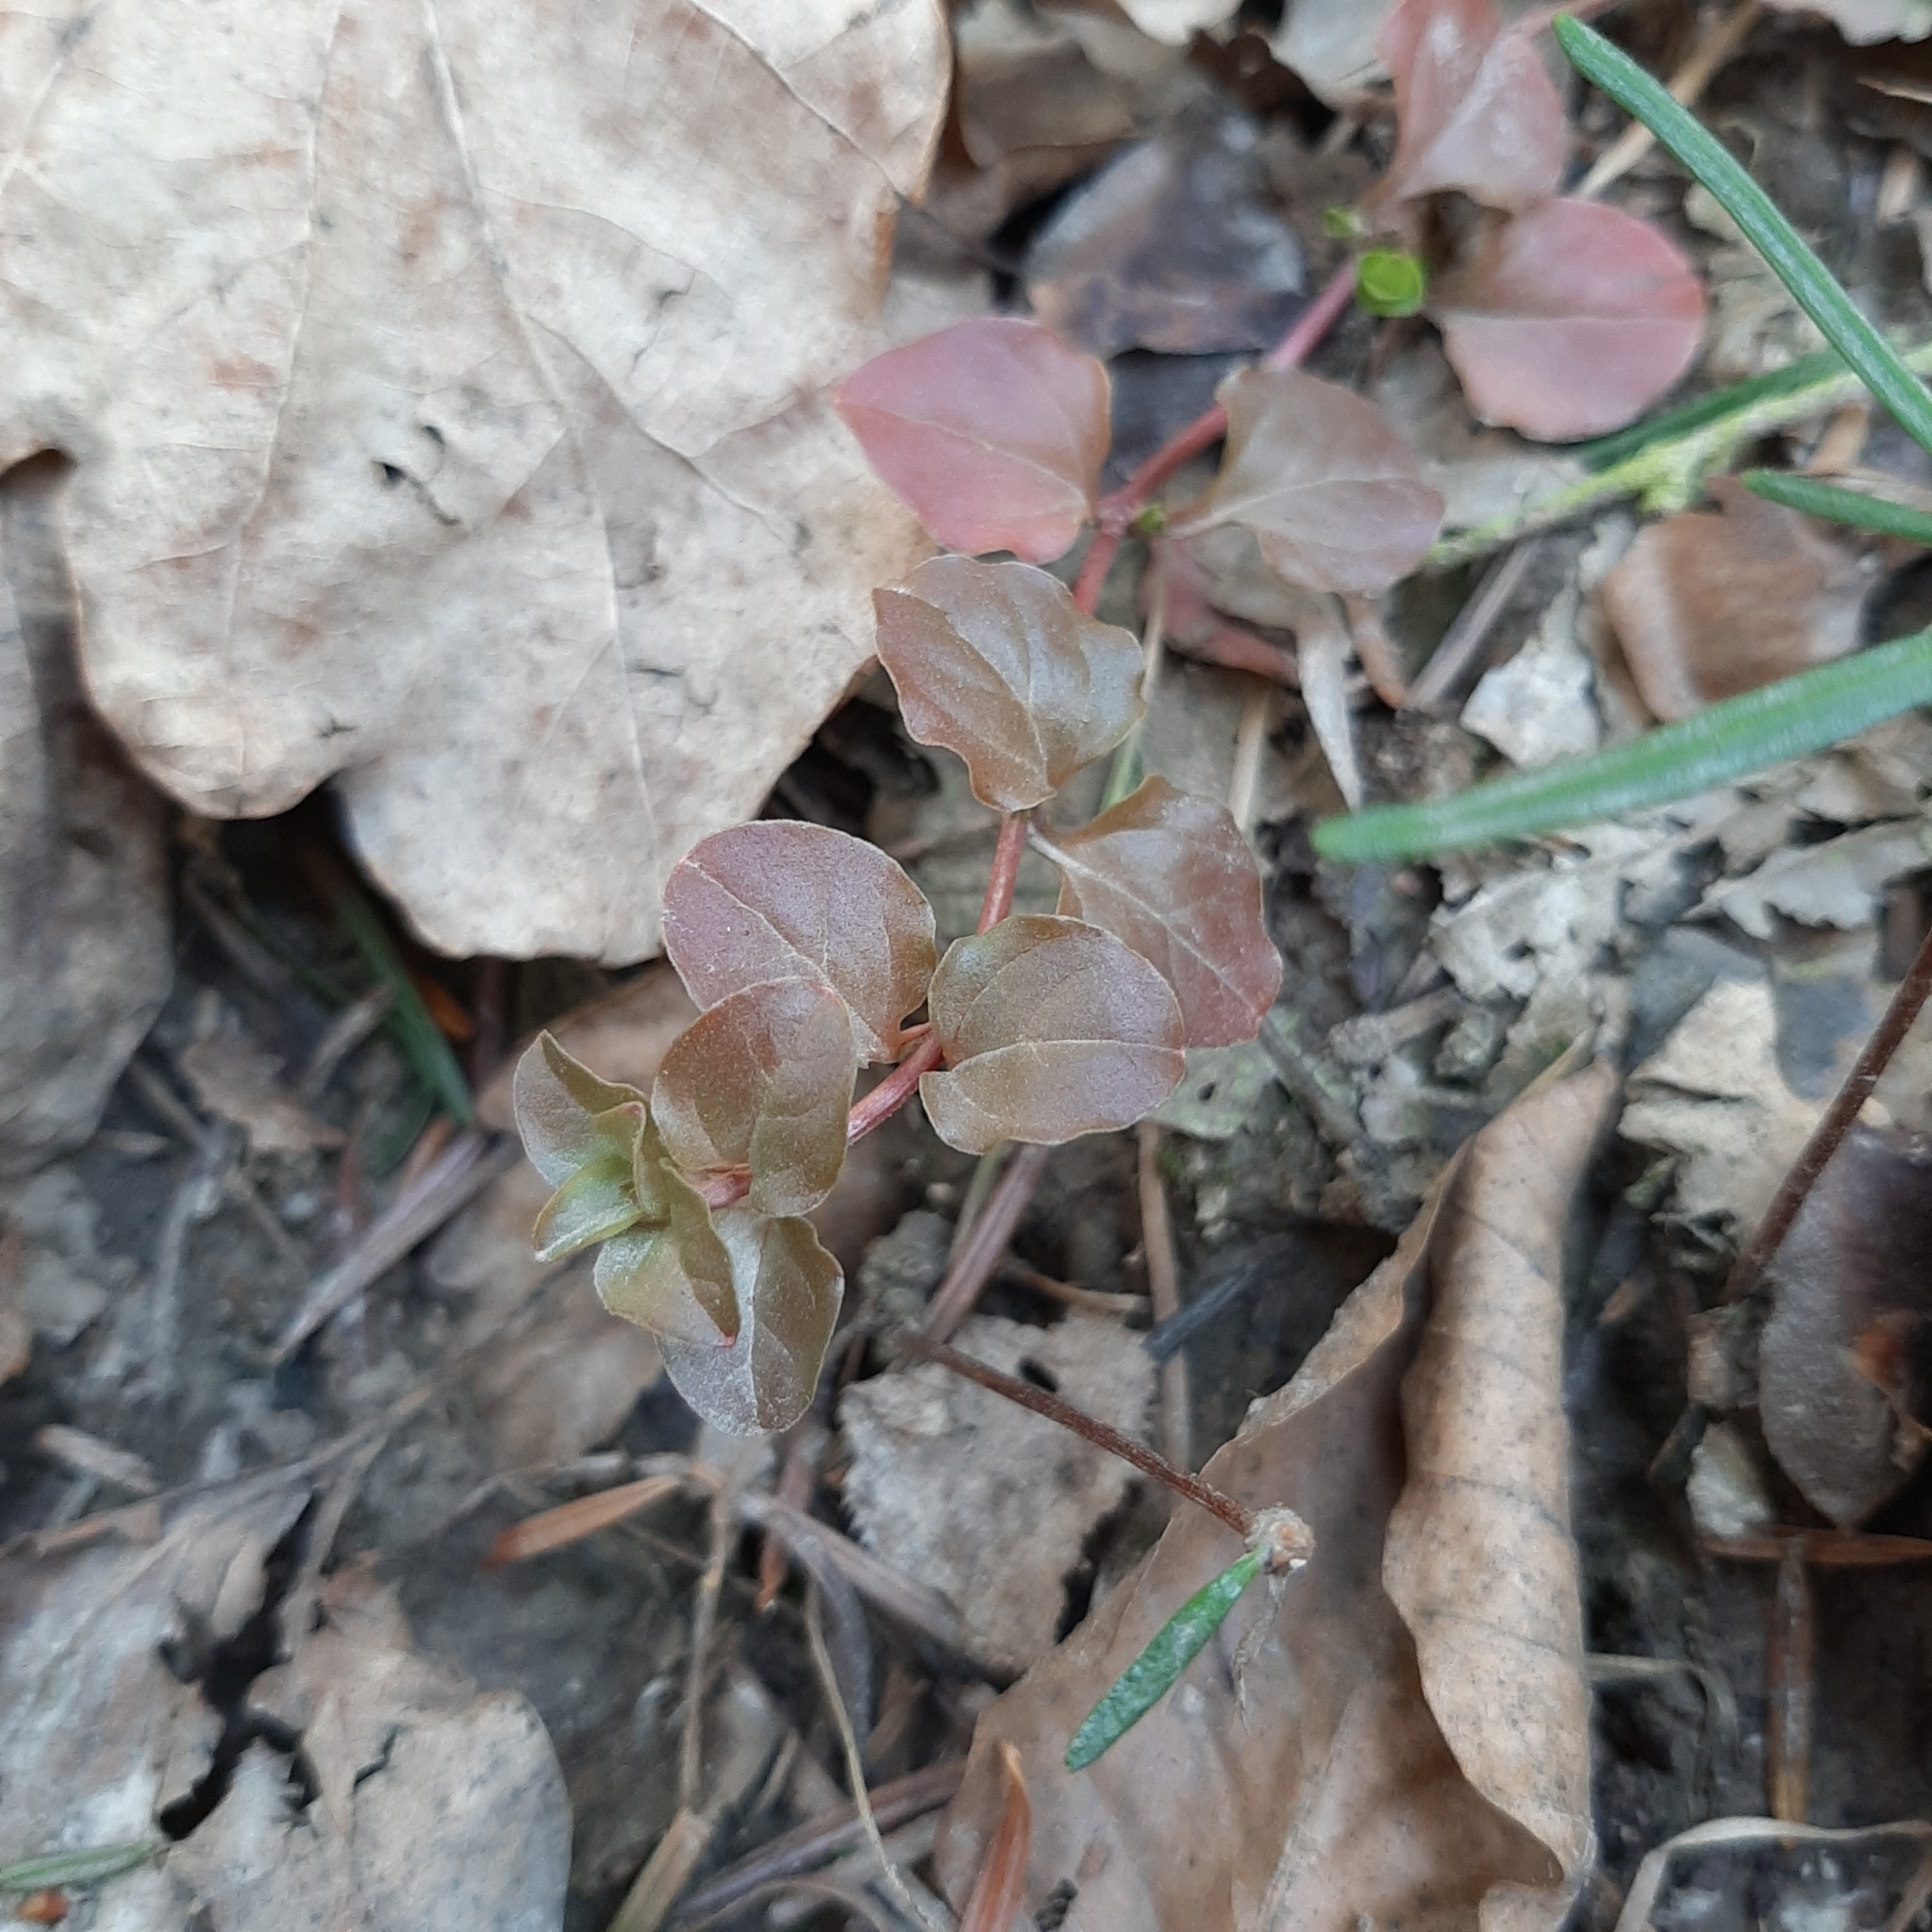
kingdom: Plantae
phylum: Tracheophyta
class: Magnoliopsida
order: Ericales
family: Primulaceae
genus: Lysimachia
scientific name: Lysimachia nummularia
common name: Moneywort
